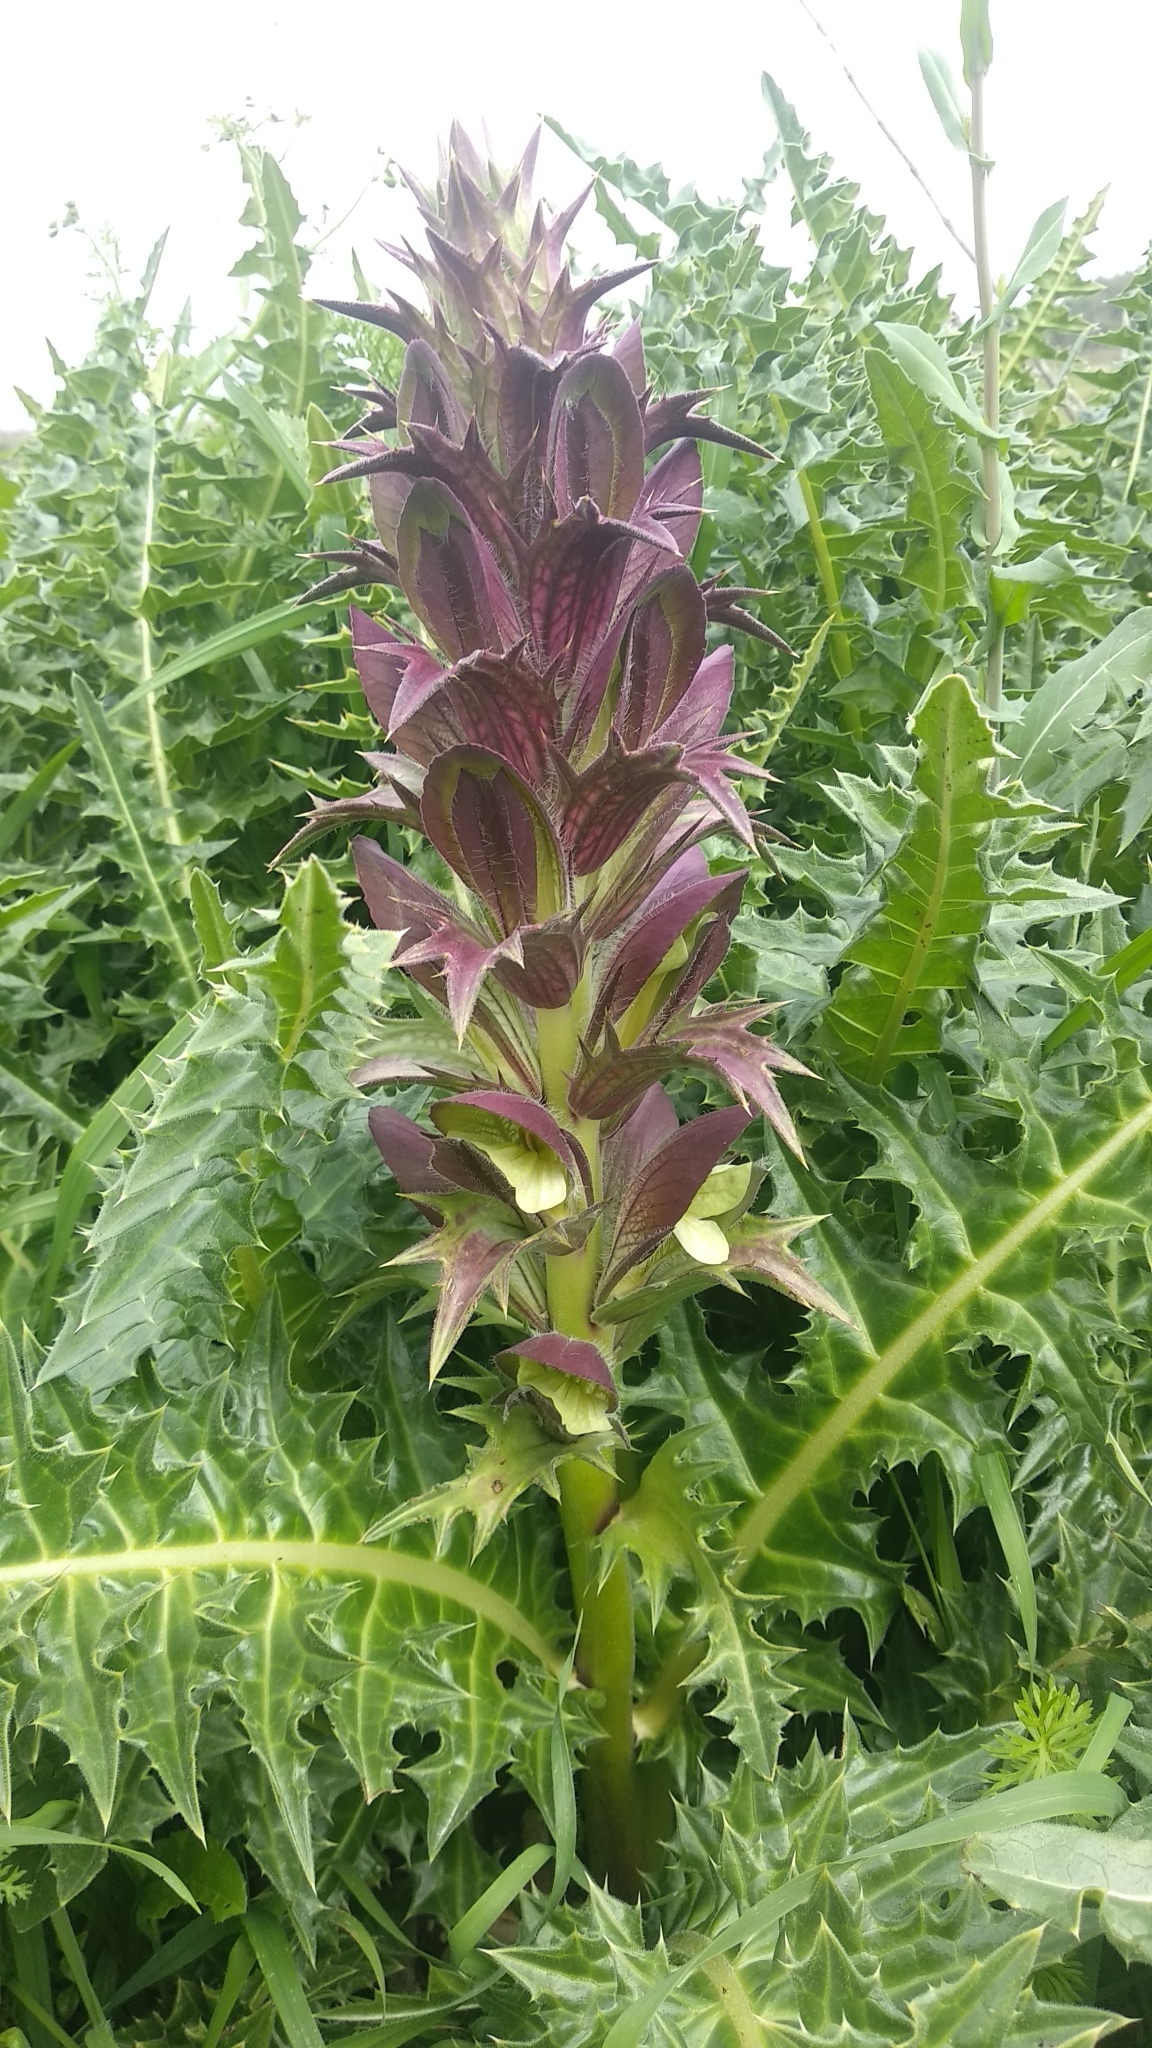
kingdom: Plantae
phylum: Tracheophyta
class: Magnoliopsida
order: Lamiales
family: Acanthaceae
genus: Acanthus
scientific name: Acanthus hirsutus
